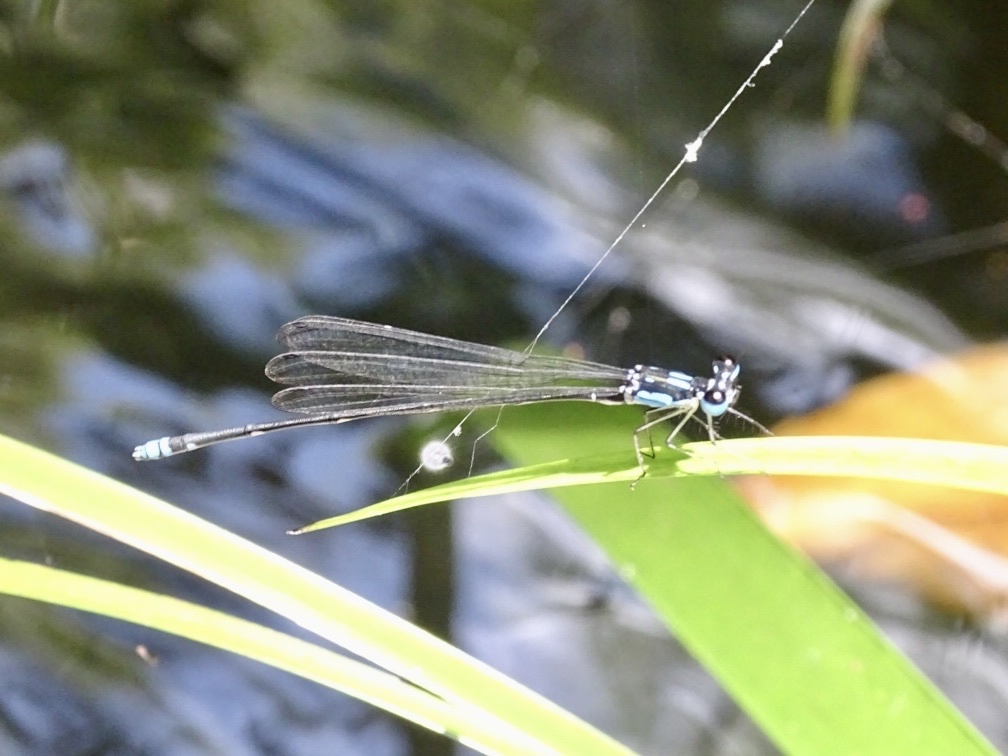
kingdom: Animalia
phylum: Arthropoda
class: Insecta
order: Odonata
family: Platycnemididae
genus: Coeliccia
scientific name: Coeliccia cyanomelas
